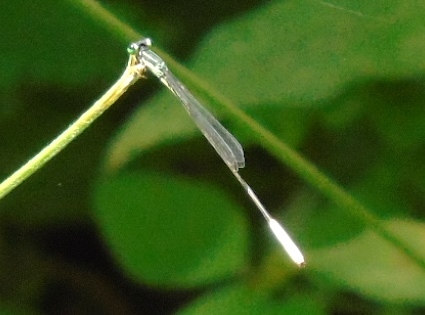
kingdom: Animalia
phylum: Arthropoda
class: Insecta
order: Odonata
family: Coenagrionidae
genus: Leptobasis
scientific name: Leptobasis melinogaster
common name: Cream-tipped swampdamsel
